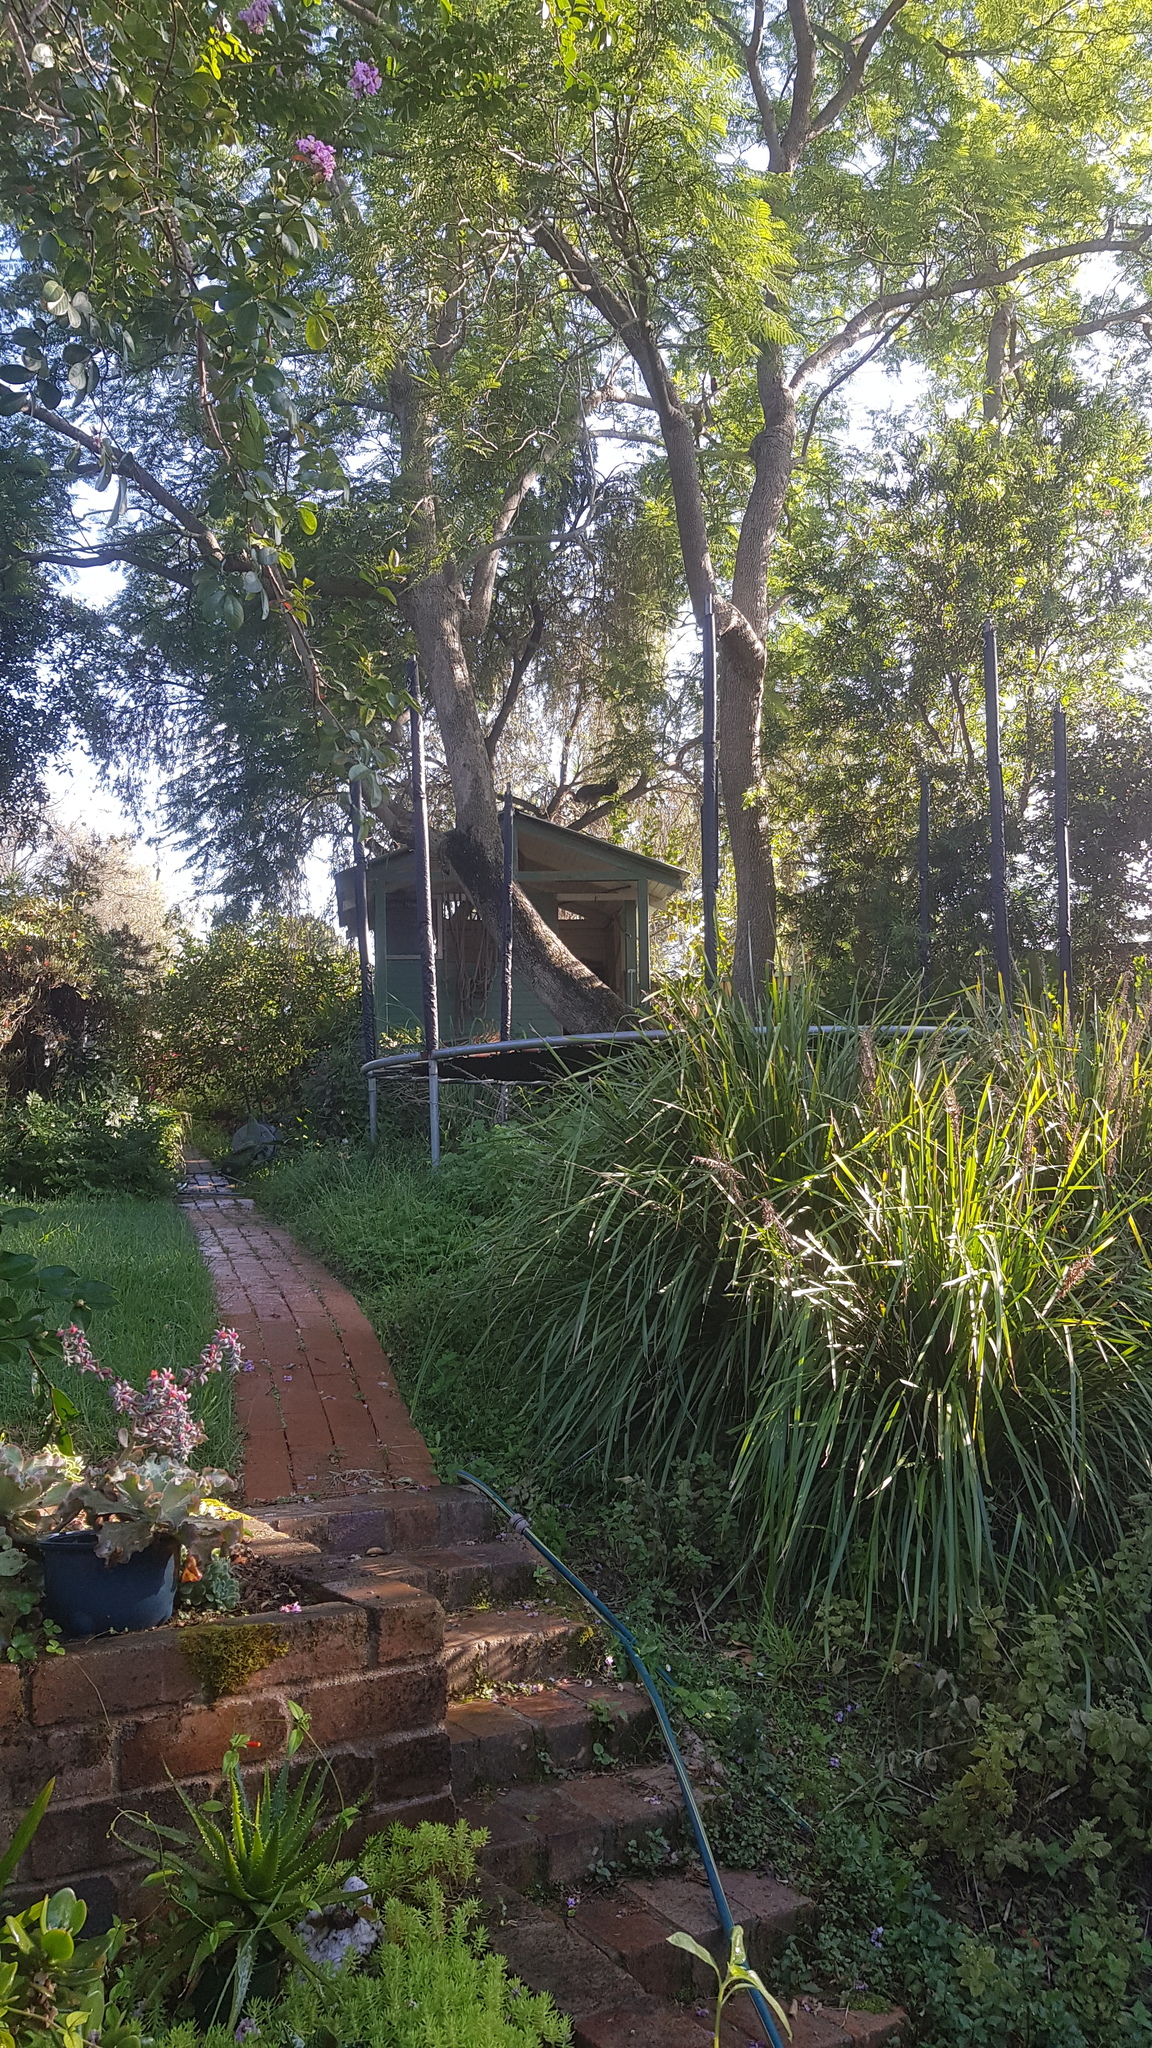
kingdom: Animalia
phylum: Chordata
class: Aves
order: Galliformes
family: Megapodiidae
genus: Alectura
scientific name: Alectura lathami
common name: Australian brushturkey
